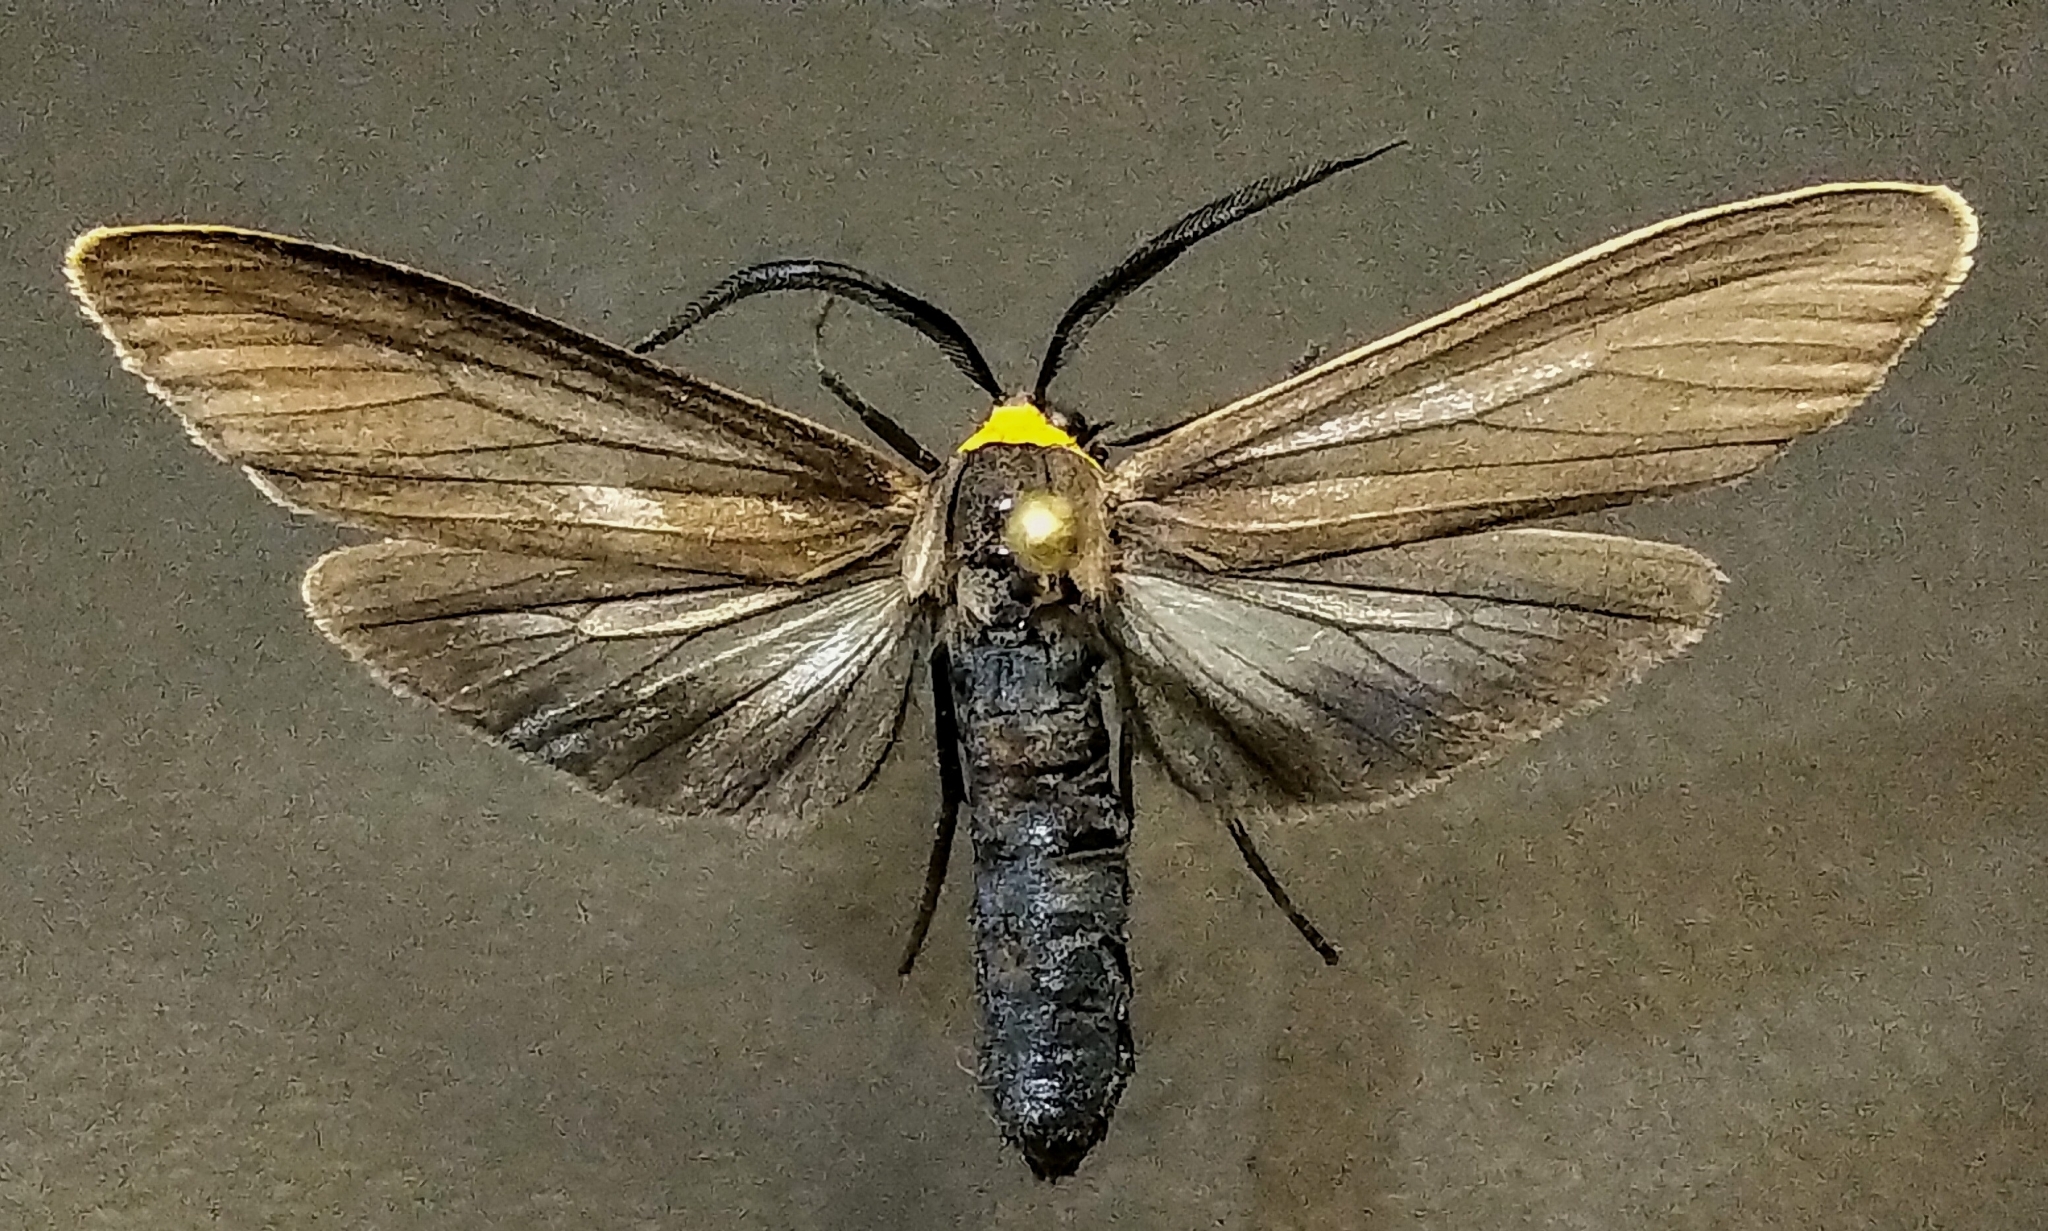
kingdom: Animalia
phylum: Arthropoda
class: Insecta
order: Lepidoptera
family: Erebidae
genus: Cisseps
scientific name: Cisseps fulvicollis
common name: Yellow-collared scape moth
